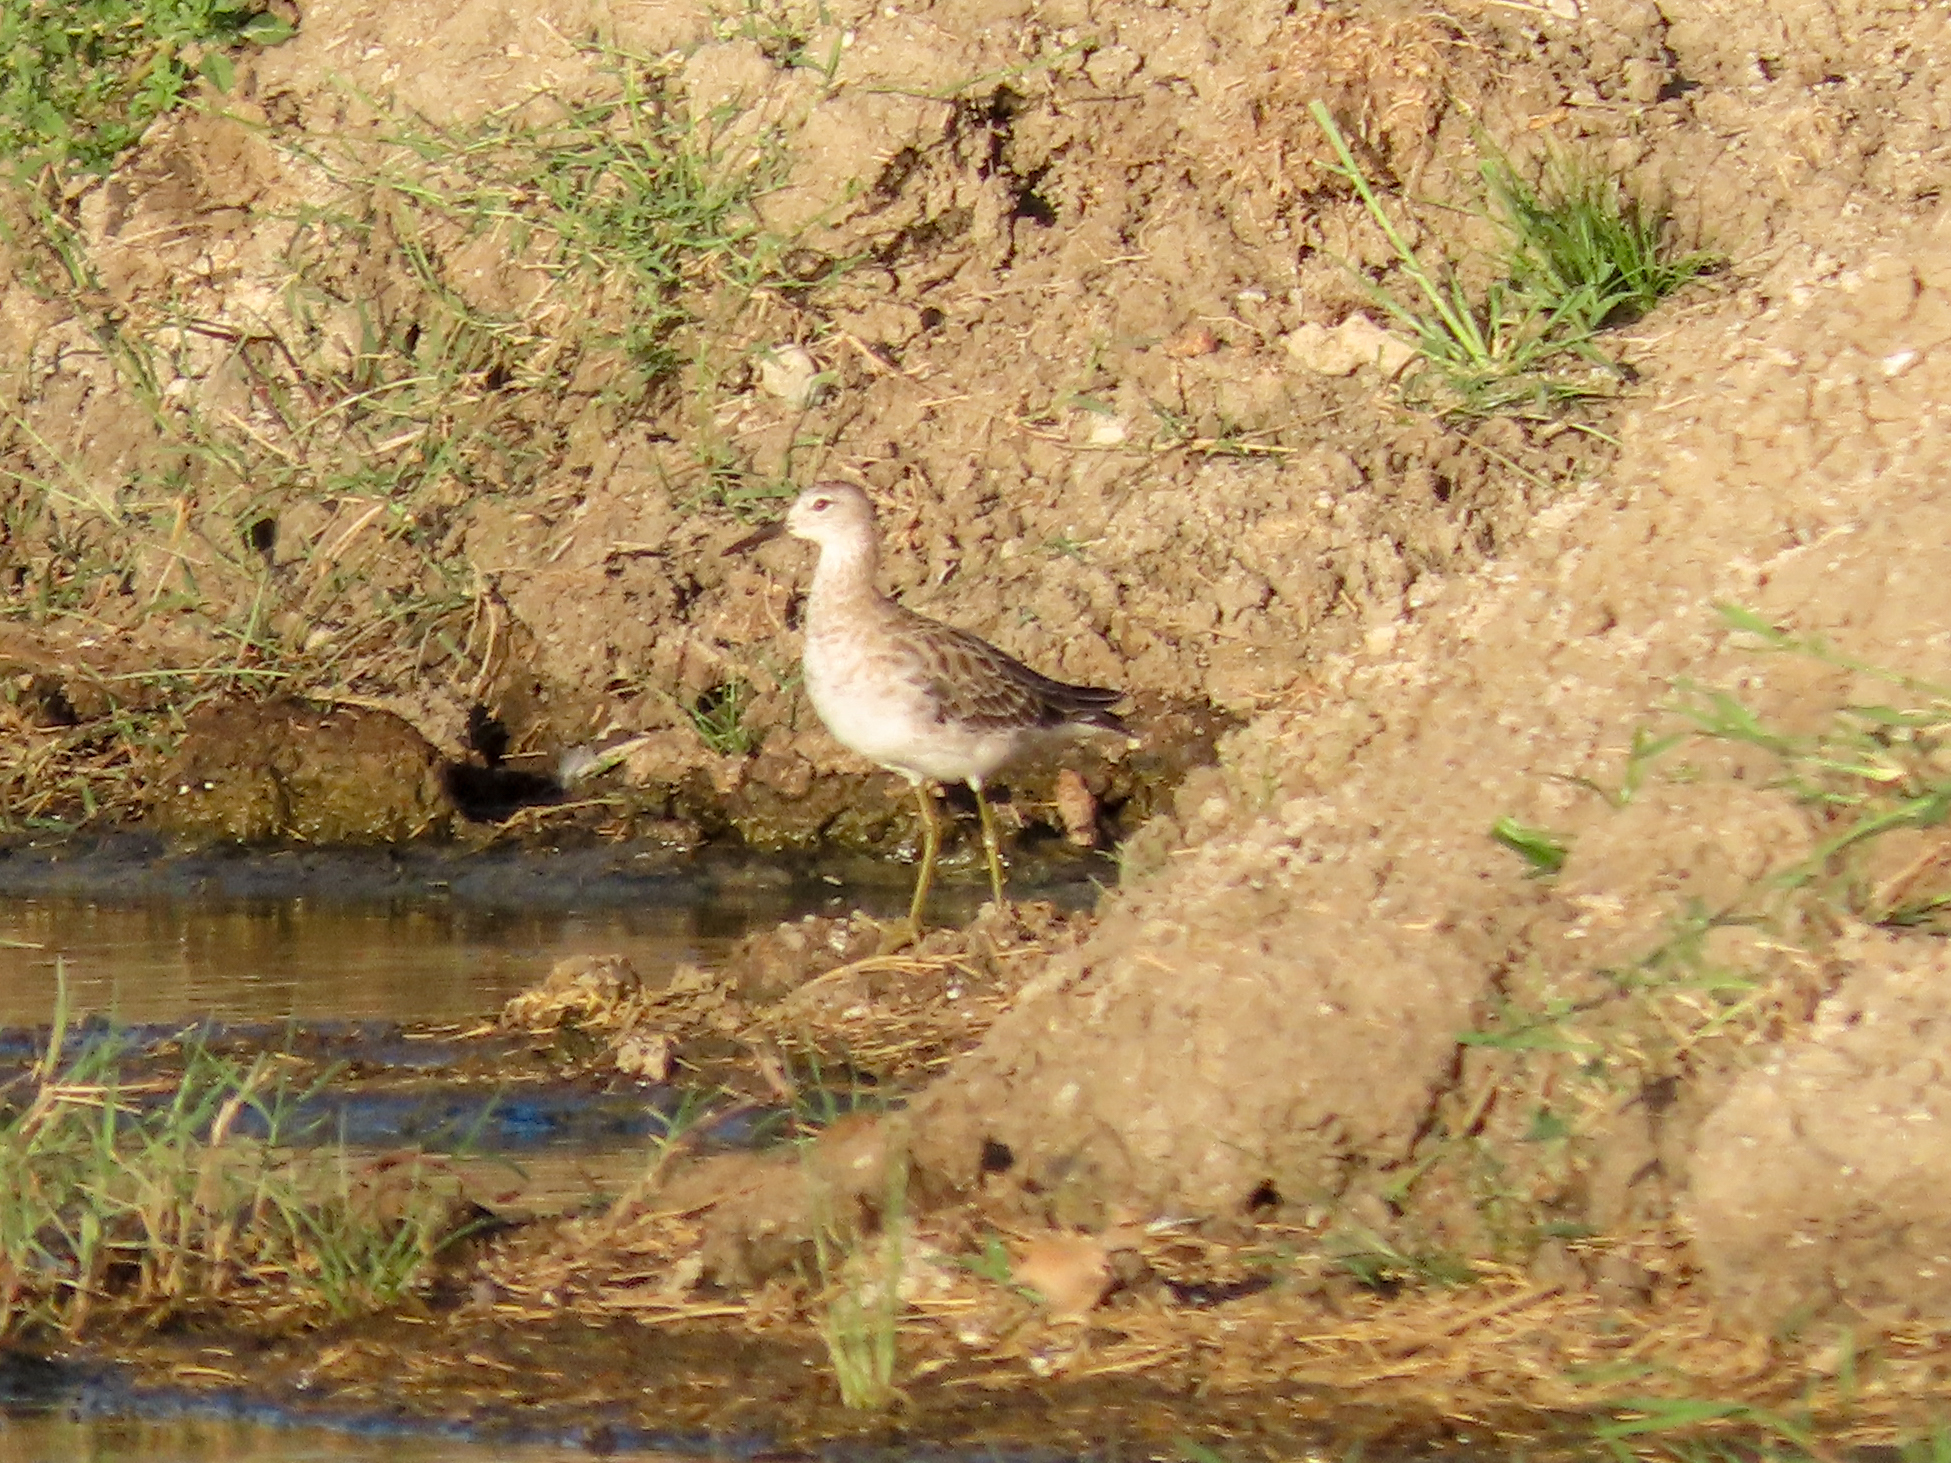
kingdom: Animalia
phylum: Chordata
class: Aves
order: Charadriiformes
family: Scolopacidae
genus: Calidris
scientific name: Calidris pugnax
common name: Ruff
